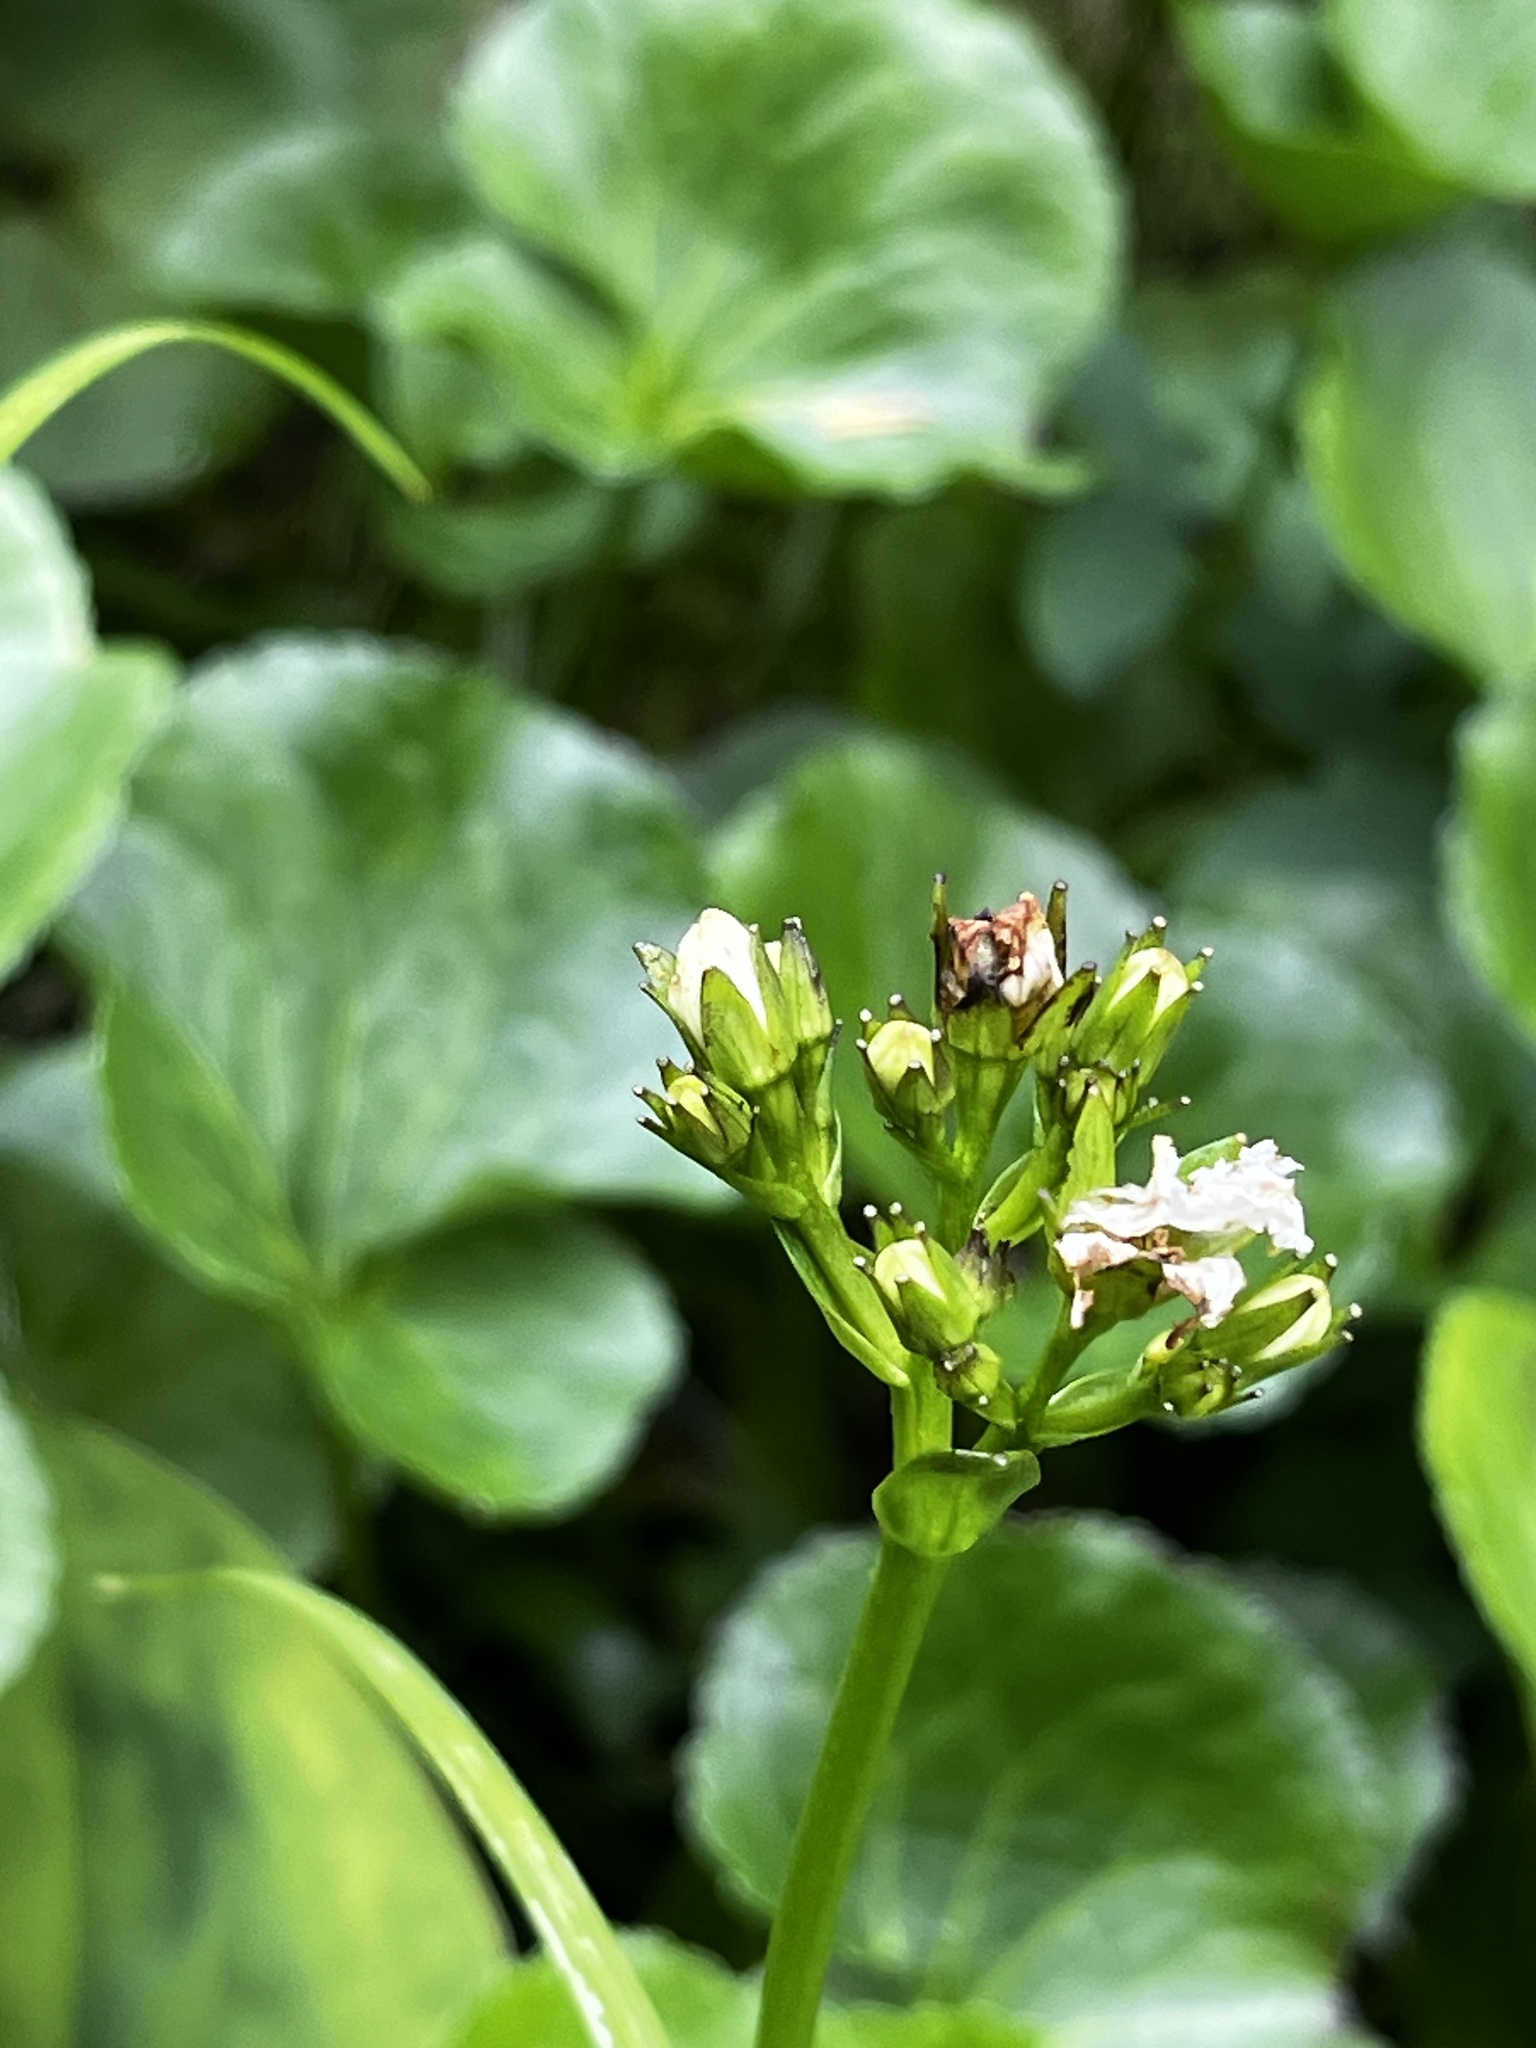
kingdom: Plantae
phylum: Tracheophyta
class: Magnoliopsida
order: Asterales
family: Menyanthaceae
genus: Nephrophyllidium
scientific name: Nephrophyllidium crista-galli
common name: Deer-cabbage
